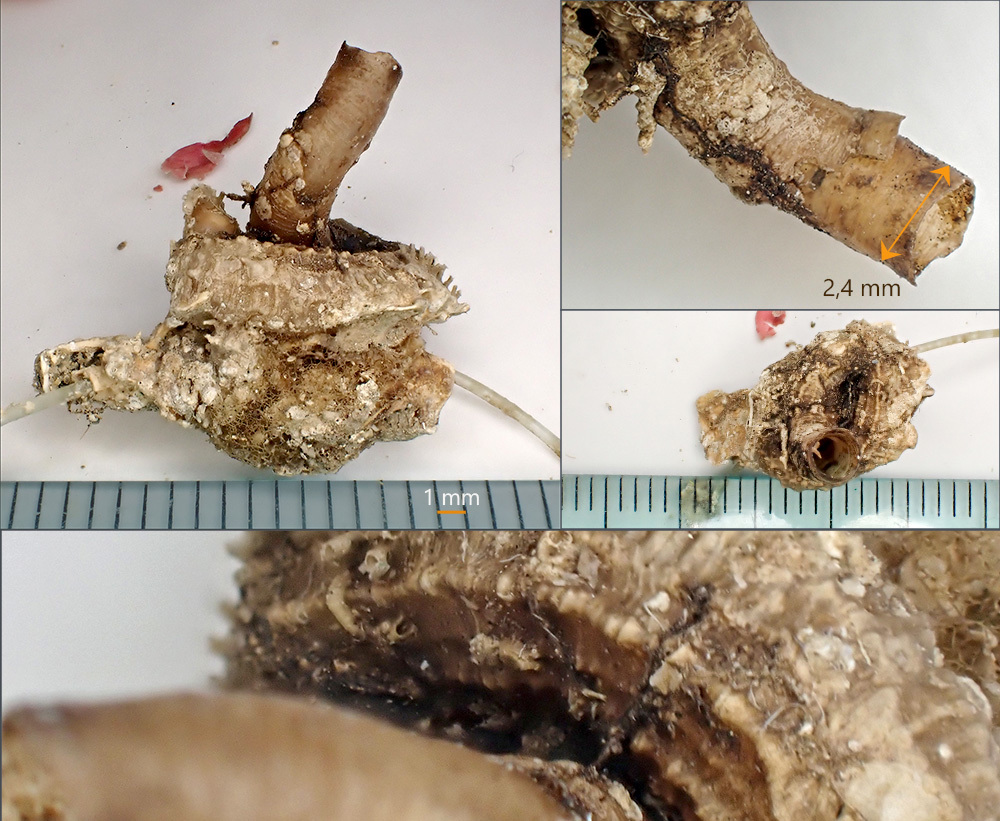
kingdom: Animalia
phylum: Mollusca
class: Gastropoda
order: Littorinimorpha
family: Vermetidae
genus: Vermetus
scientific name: Vermetus granulatus
